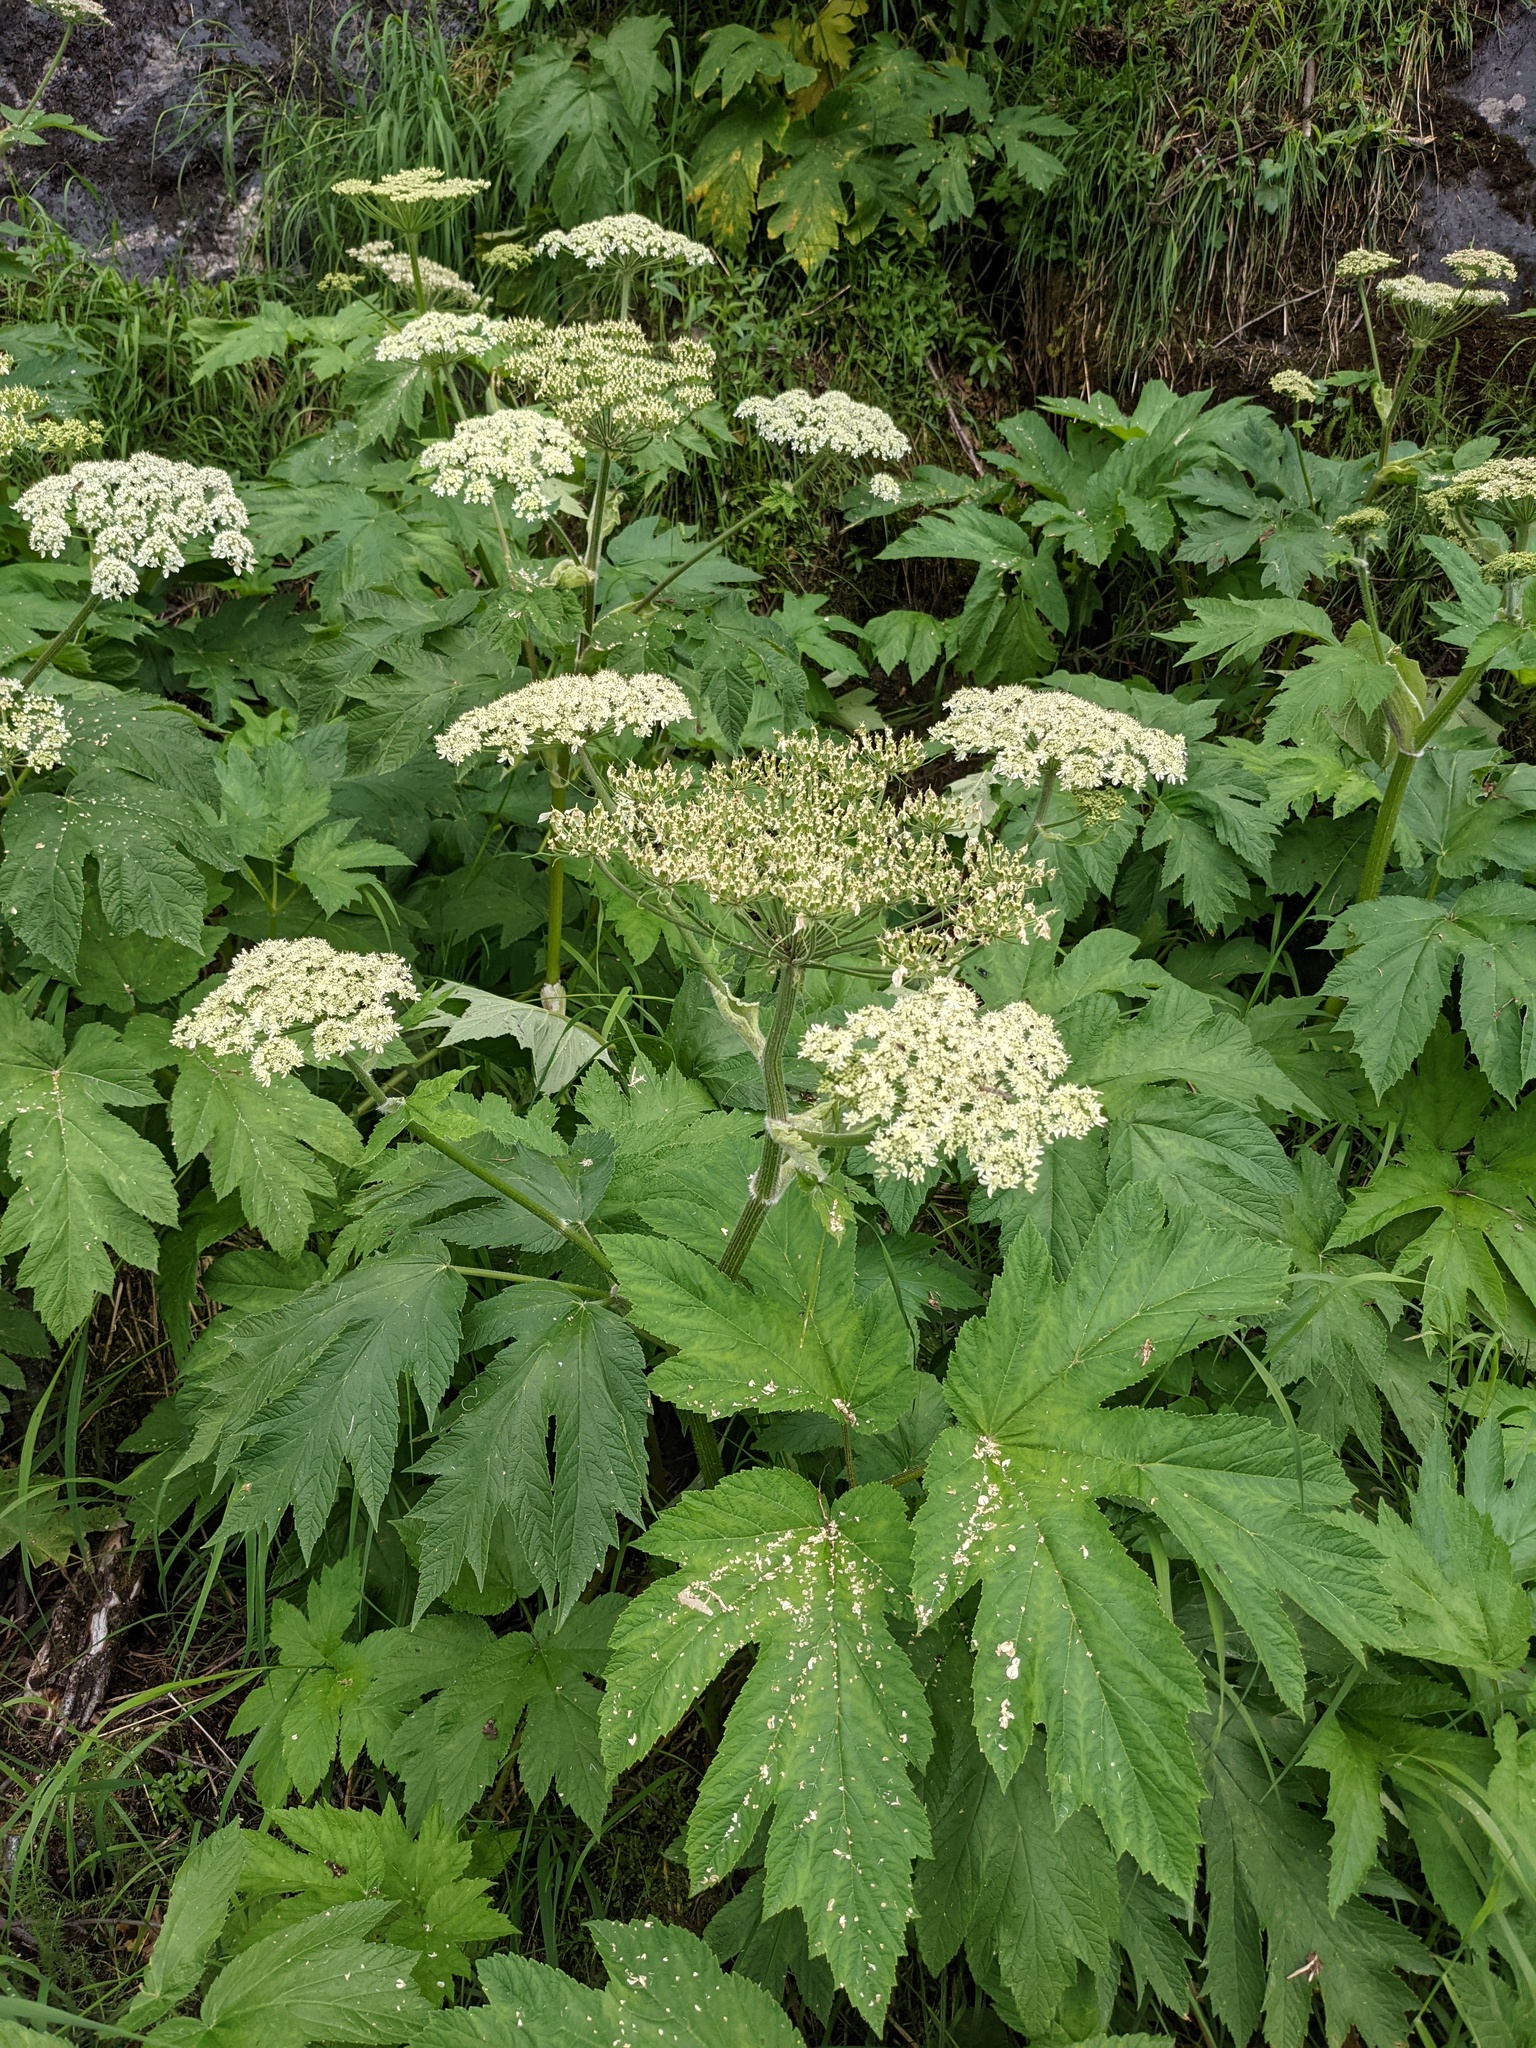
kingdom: Plantae
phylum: Tracheophyta
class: Magnoliopsida
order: Apiales
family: Apiaceae
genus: Heracleum
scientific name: Heracleum maximum
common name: American cow parsnip
